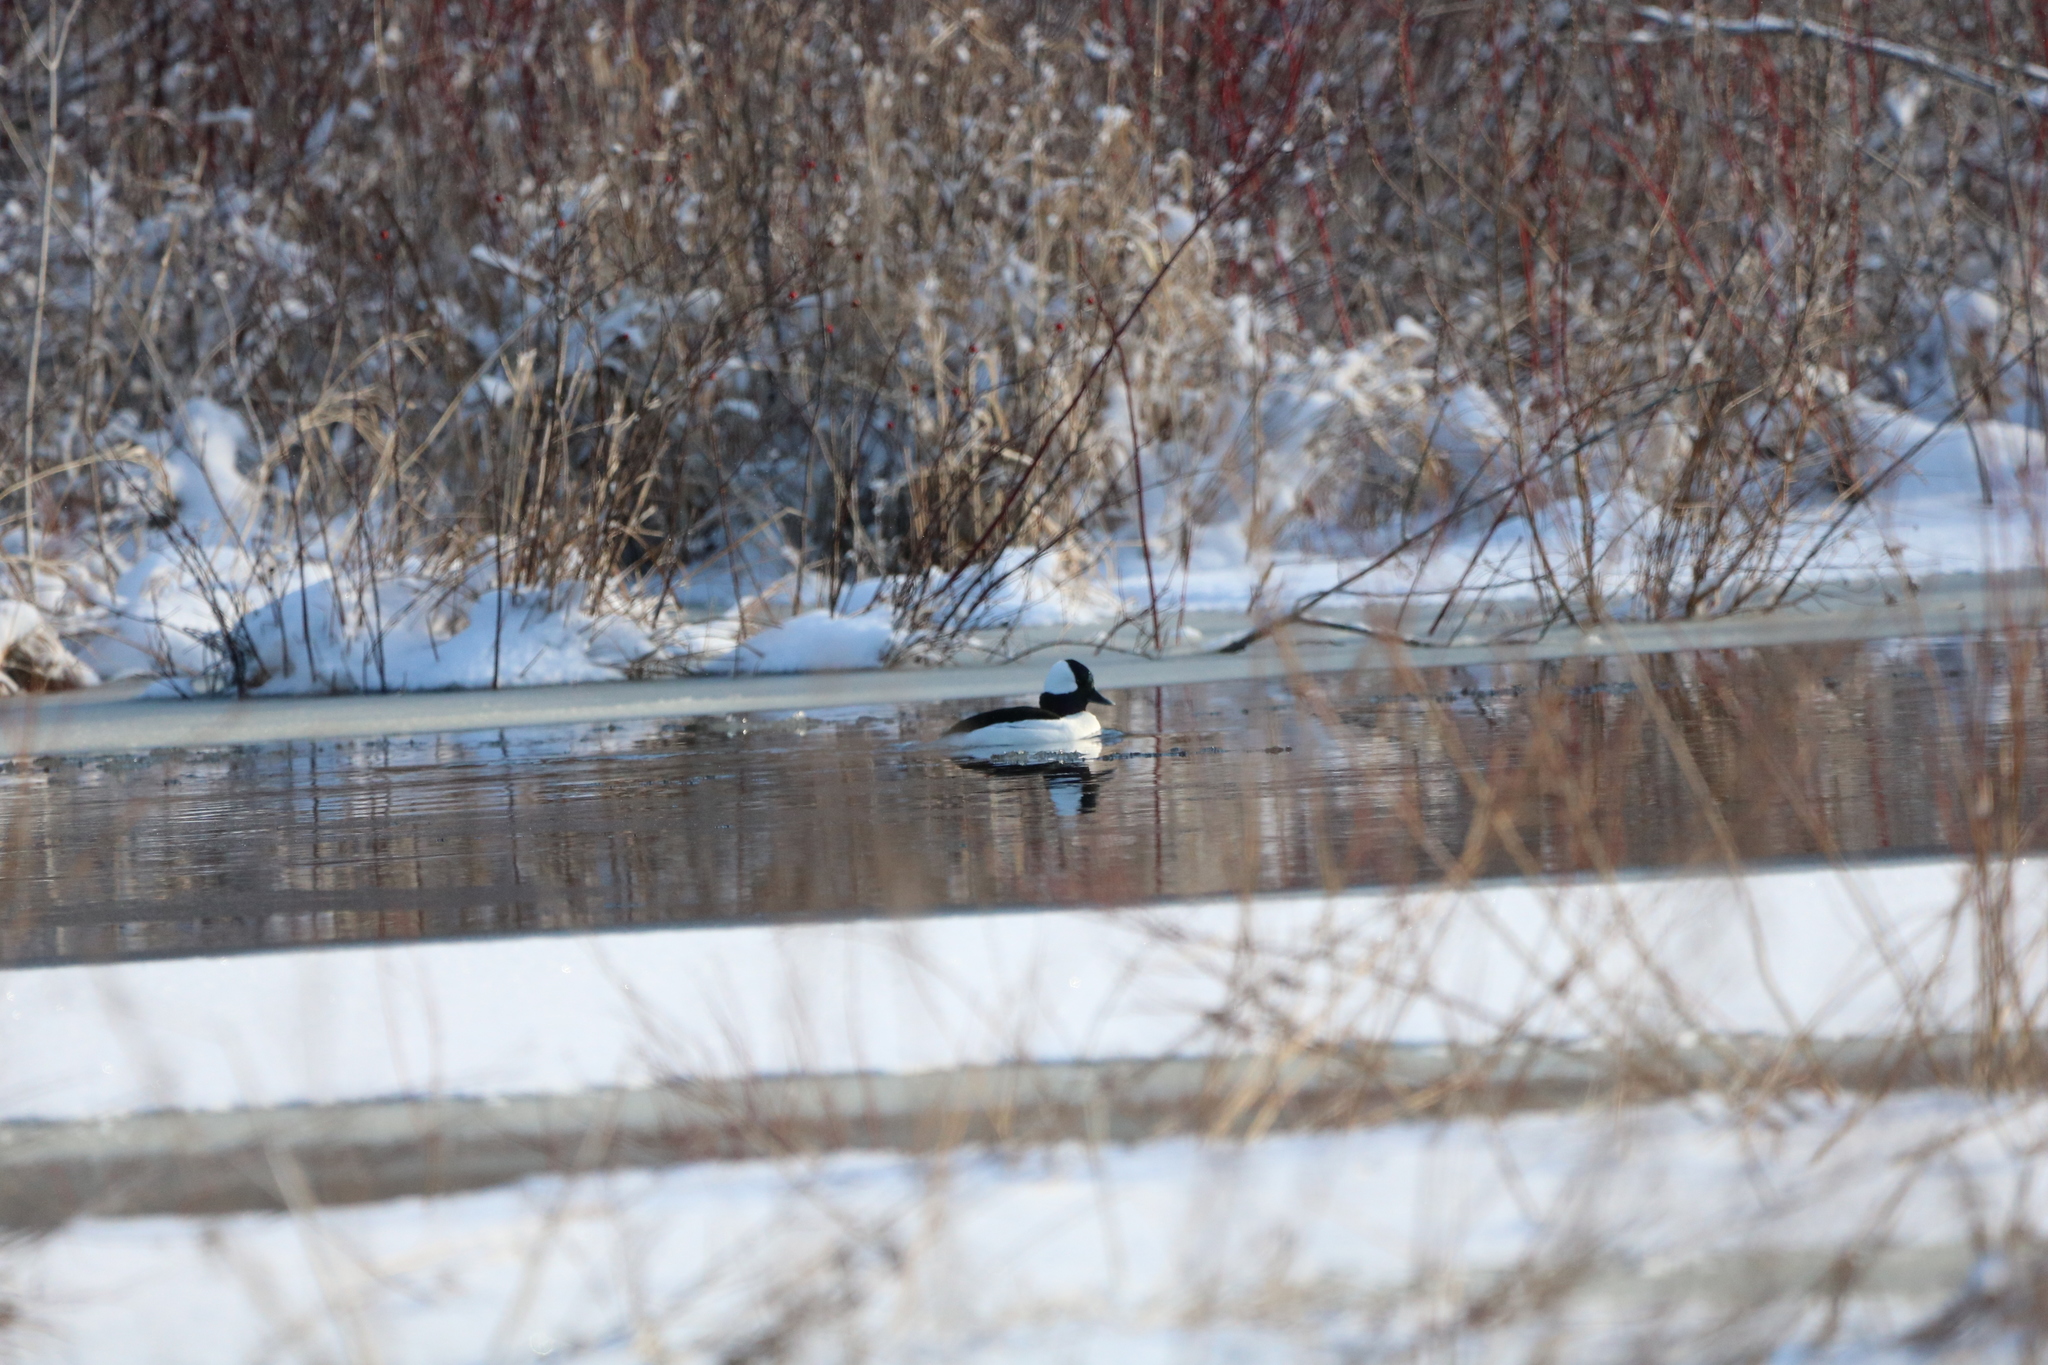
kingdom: Animalia
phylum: Chordata
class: Aves
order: Anseriformes
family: Anatidae
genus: Bucephala
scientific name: Bucephala albeola
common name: Bufflehead
